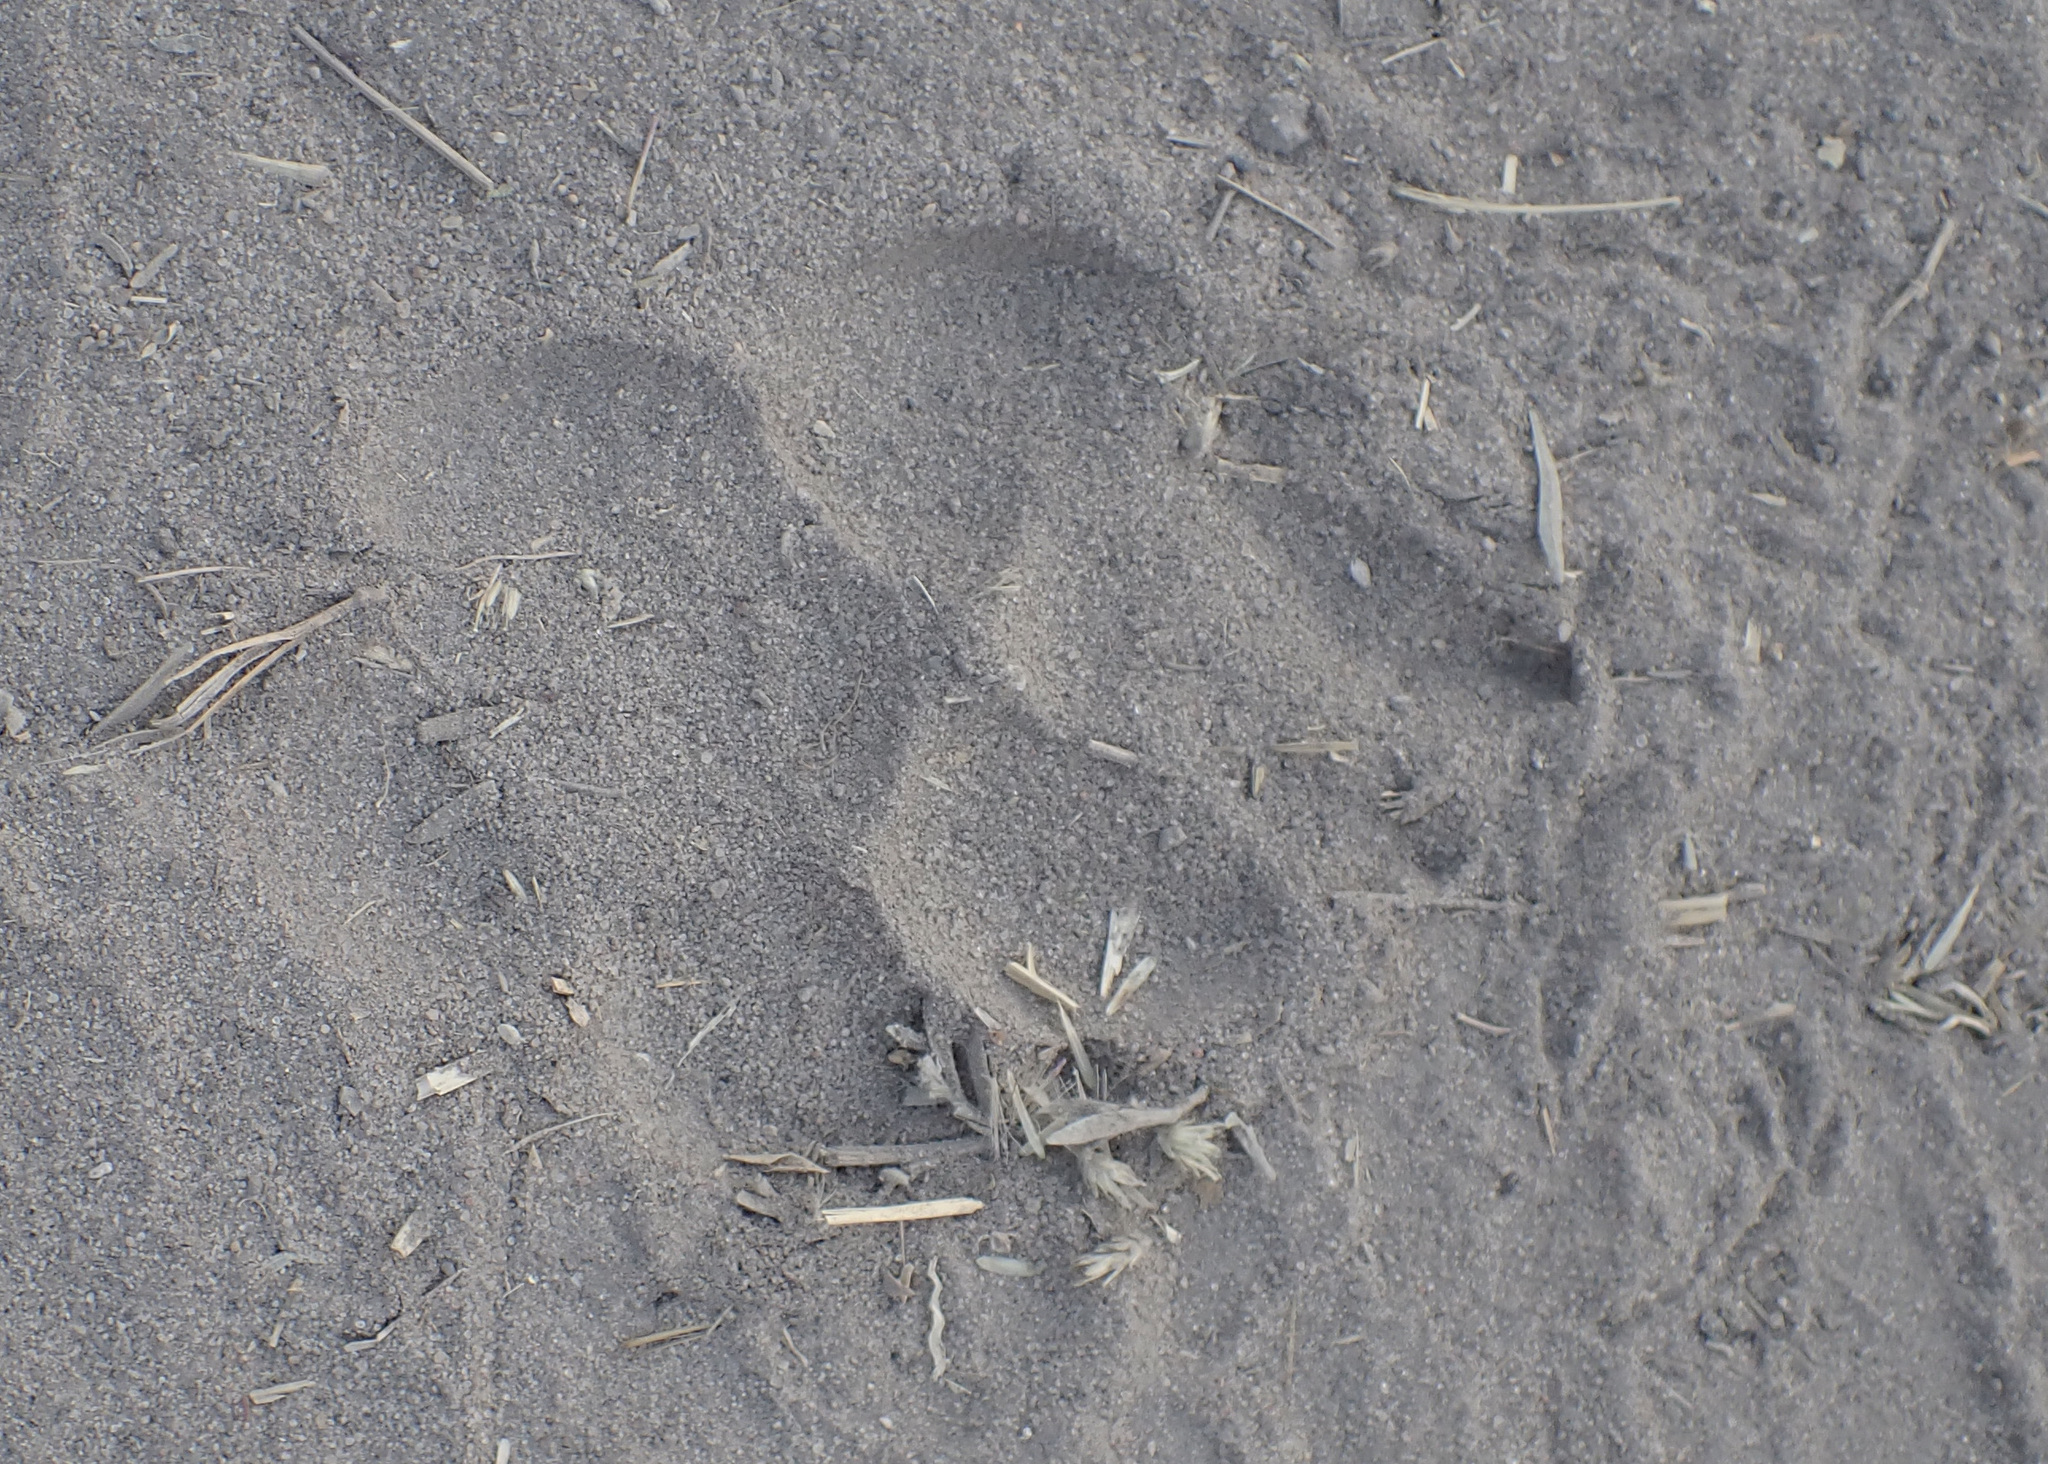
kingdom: Animalia
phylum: Chordata
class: Mammalia
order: Carnivora
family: Hyaenidae
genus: Crocuta
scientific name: Crocuta crocuta
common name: Spotted hyaena
